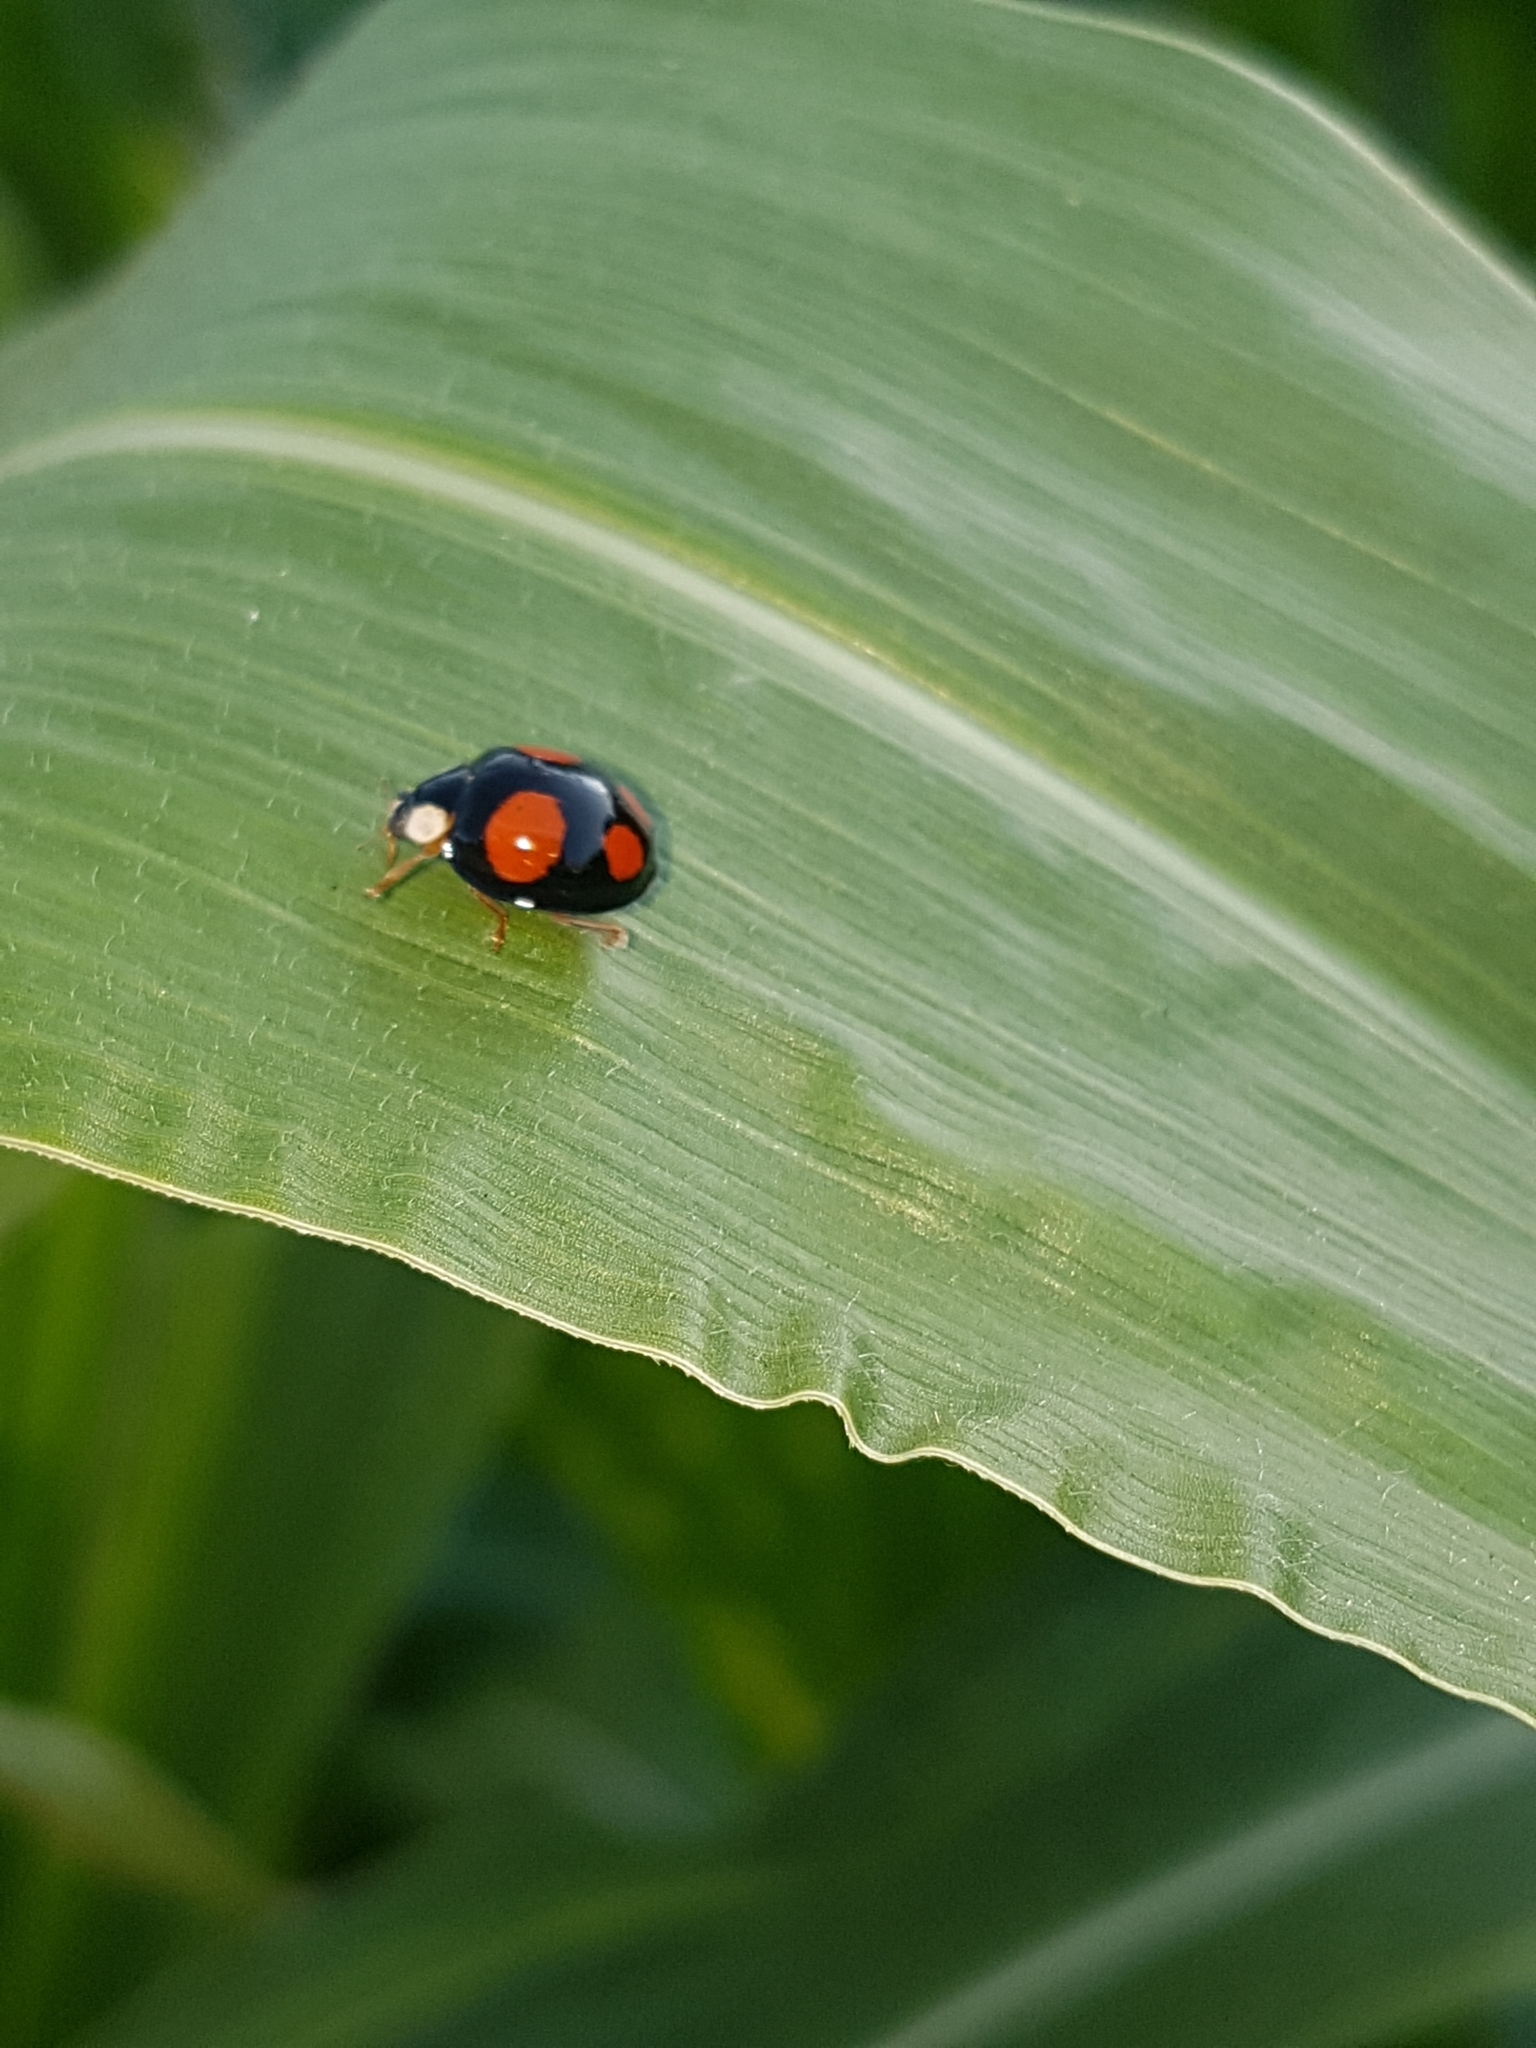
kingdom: Animalia
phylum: Arthropoda
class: Insecta
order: Coleoptera
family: Coccinellidae
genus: Harmonia
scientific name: Harmonia axyridis
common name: Harlequin ladybird
